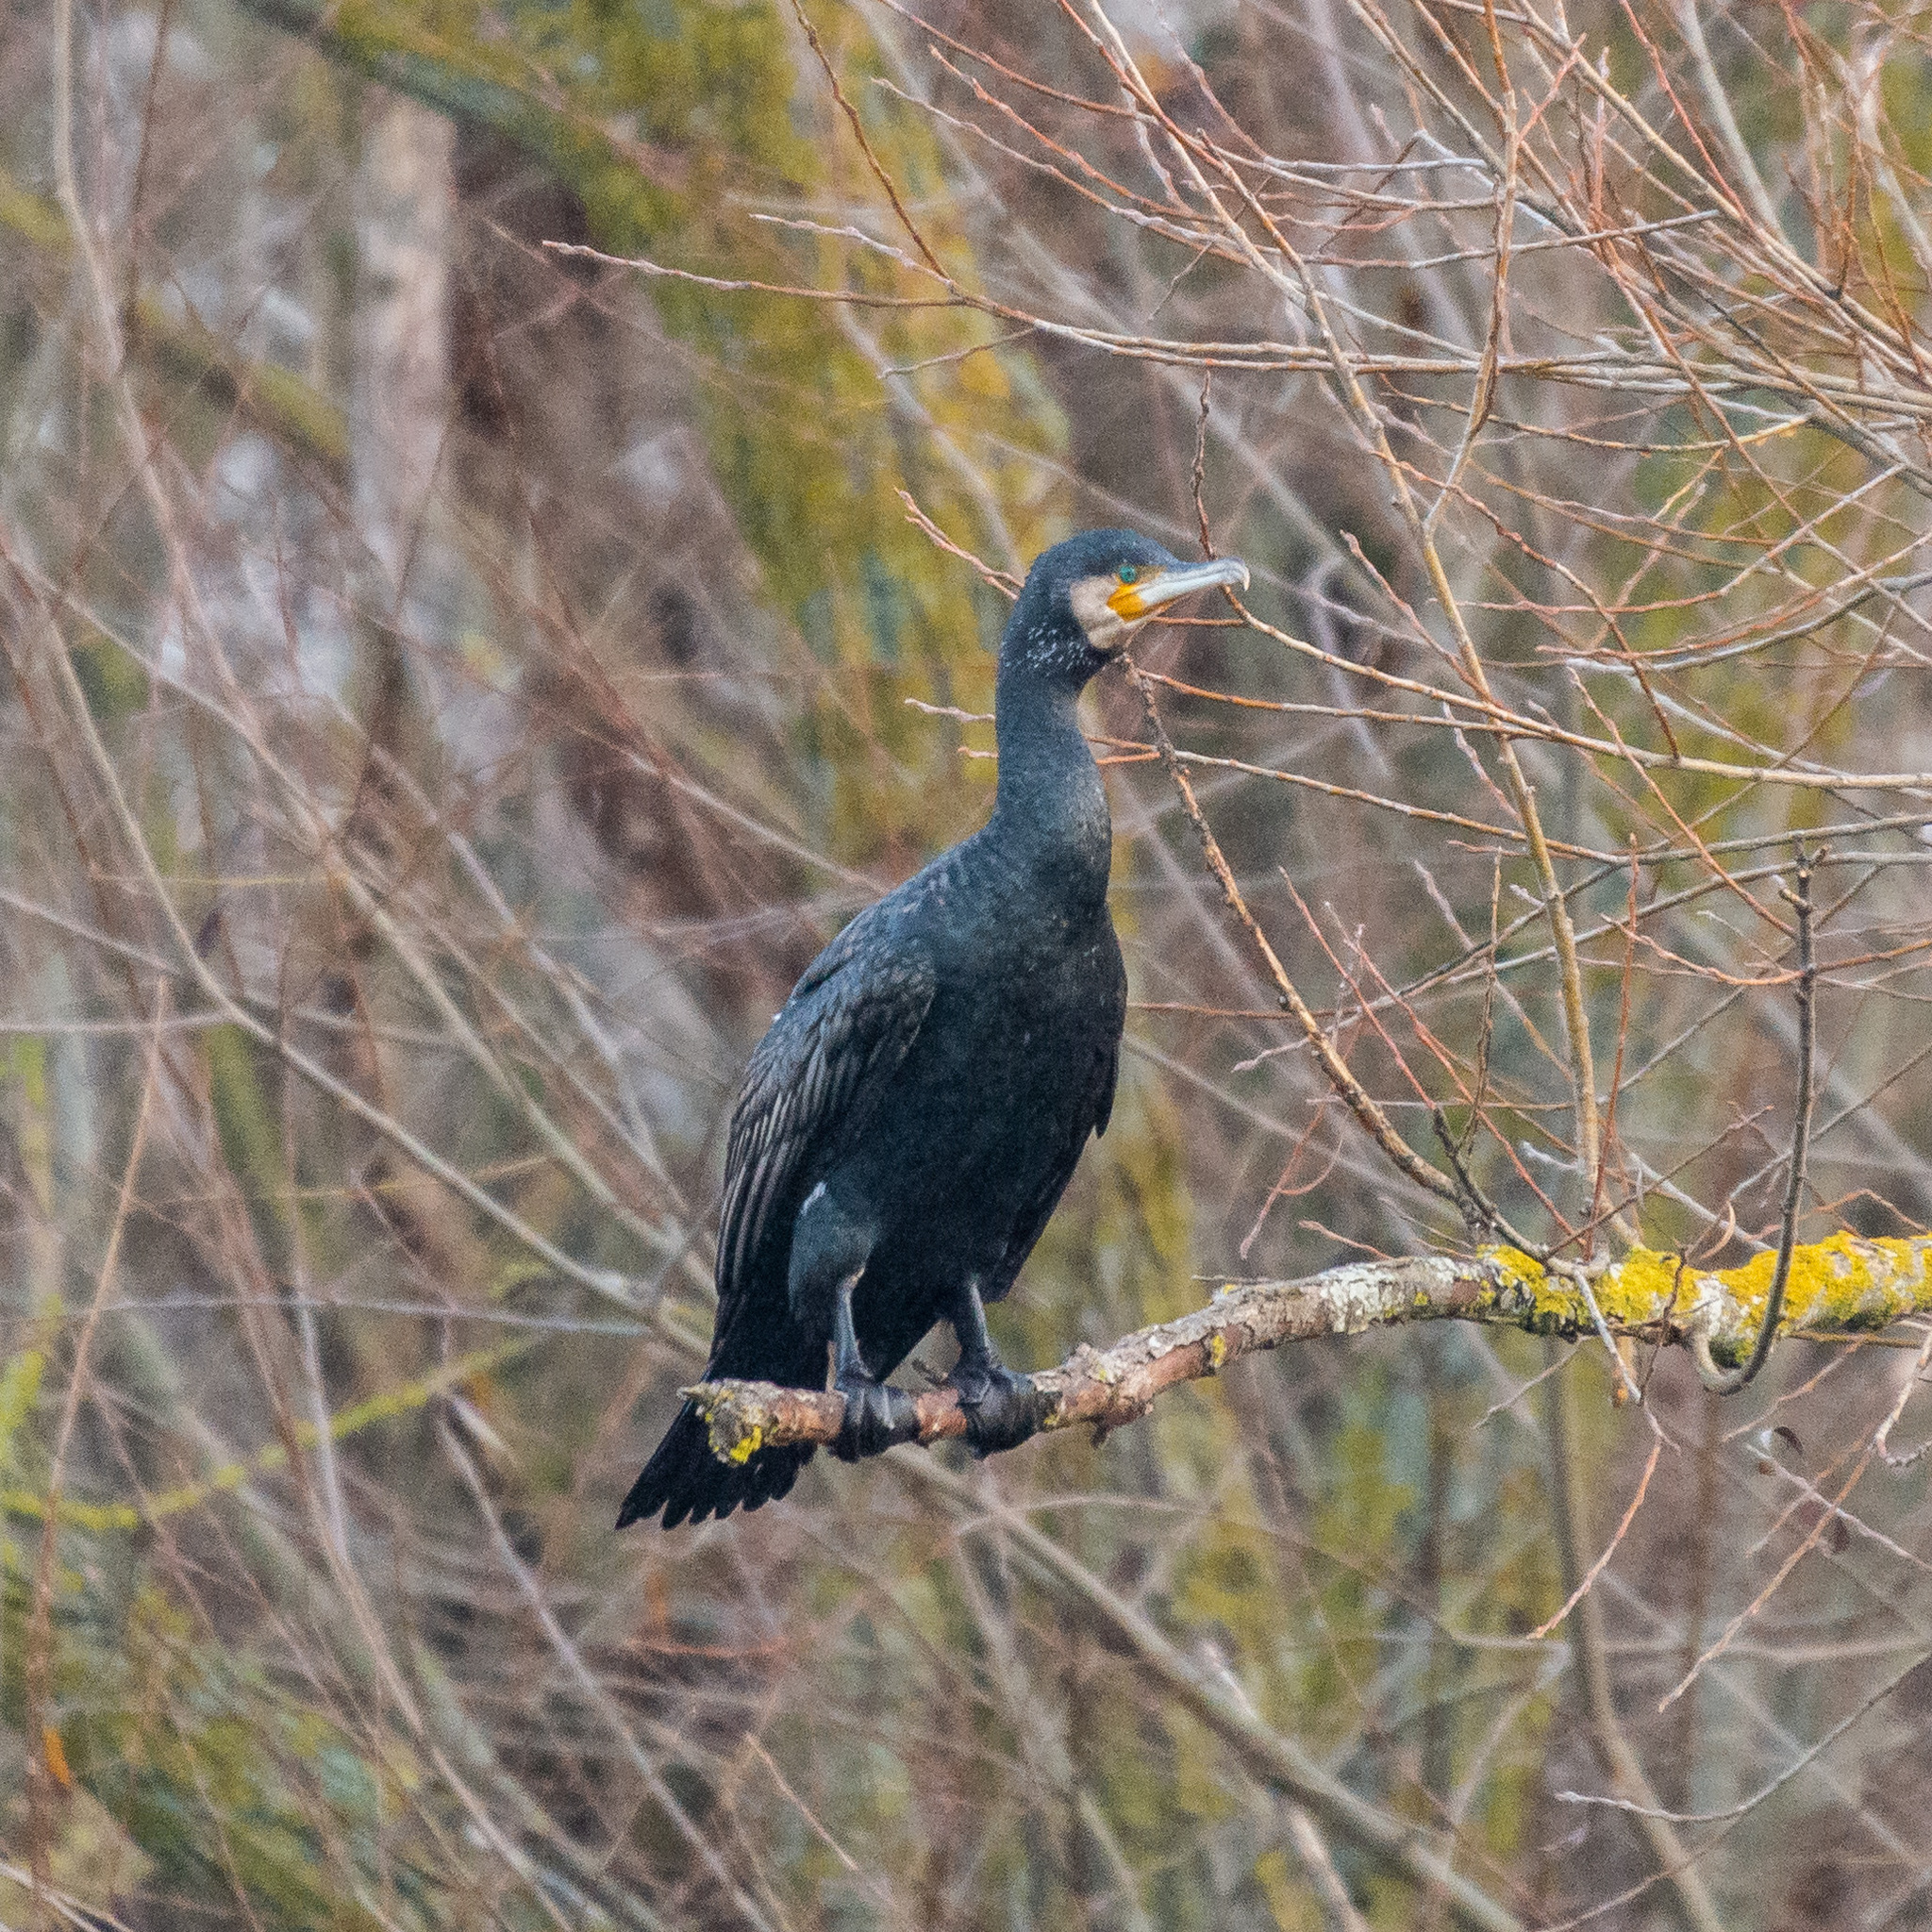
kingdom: Animalia
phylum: Chordata
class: Aves
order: Suliformes
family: Phalacrocoracidae
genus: Phalacrocorax
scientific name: Phalacrocorax carbo
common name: Great cormorant
